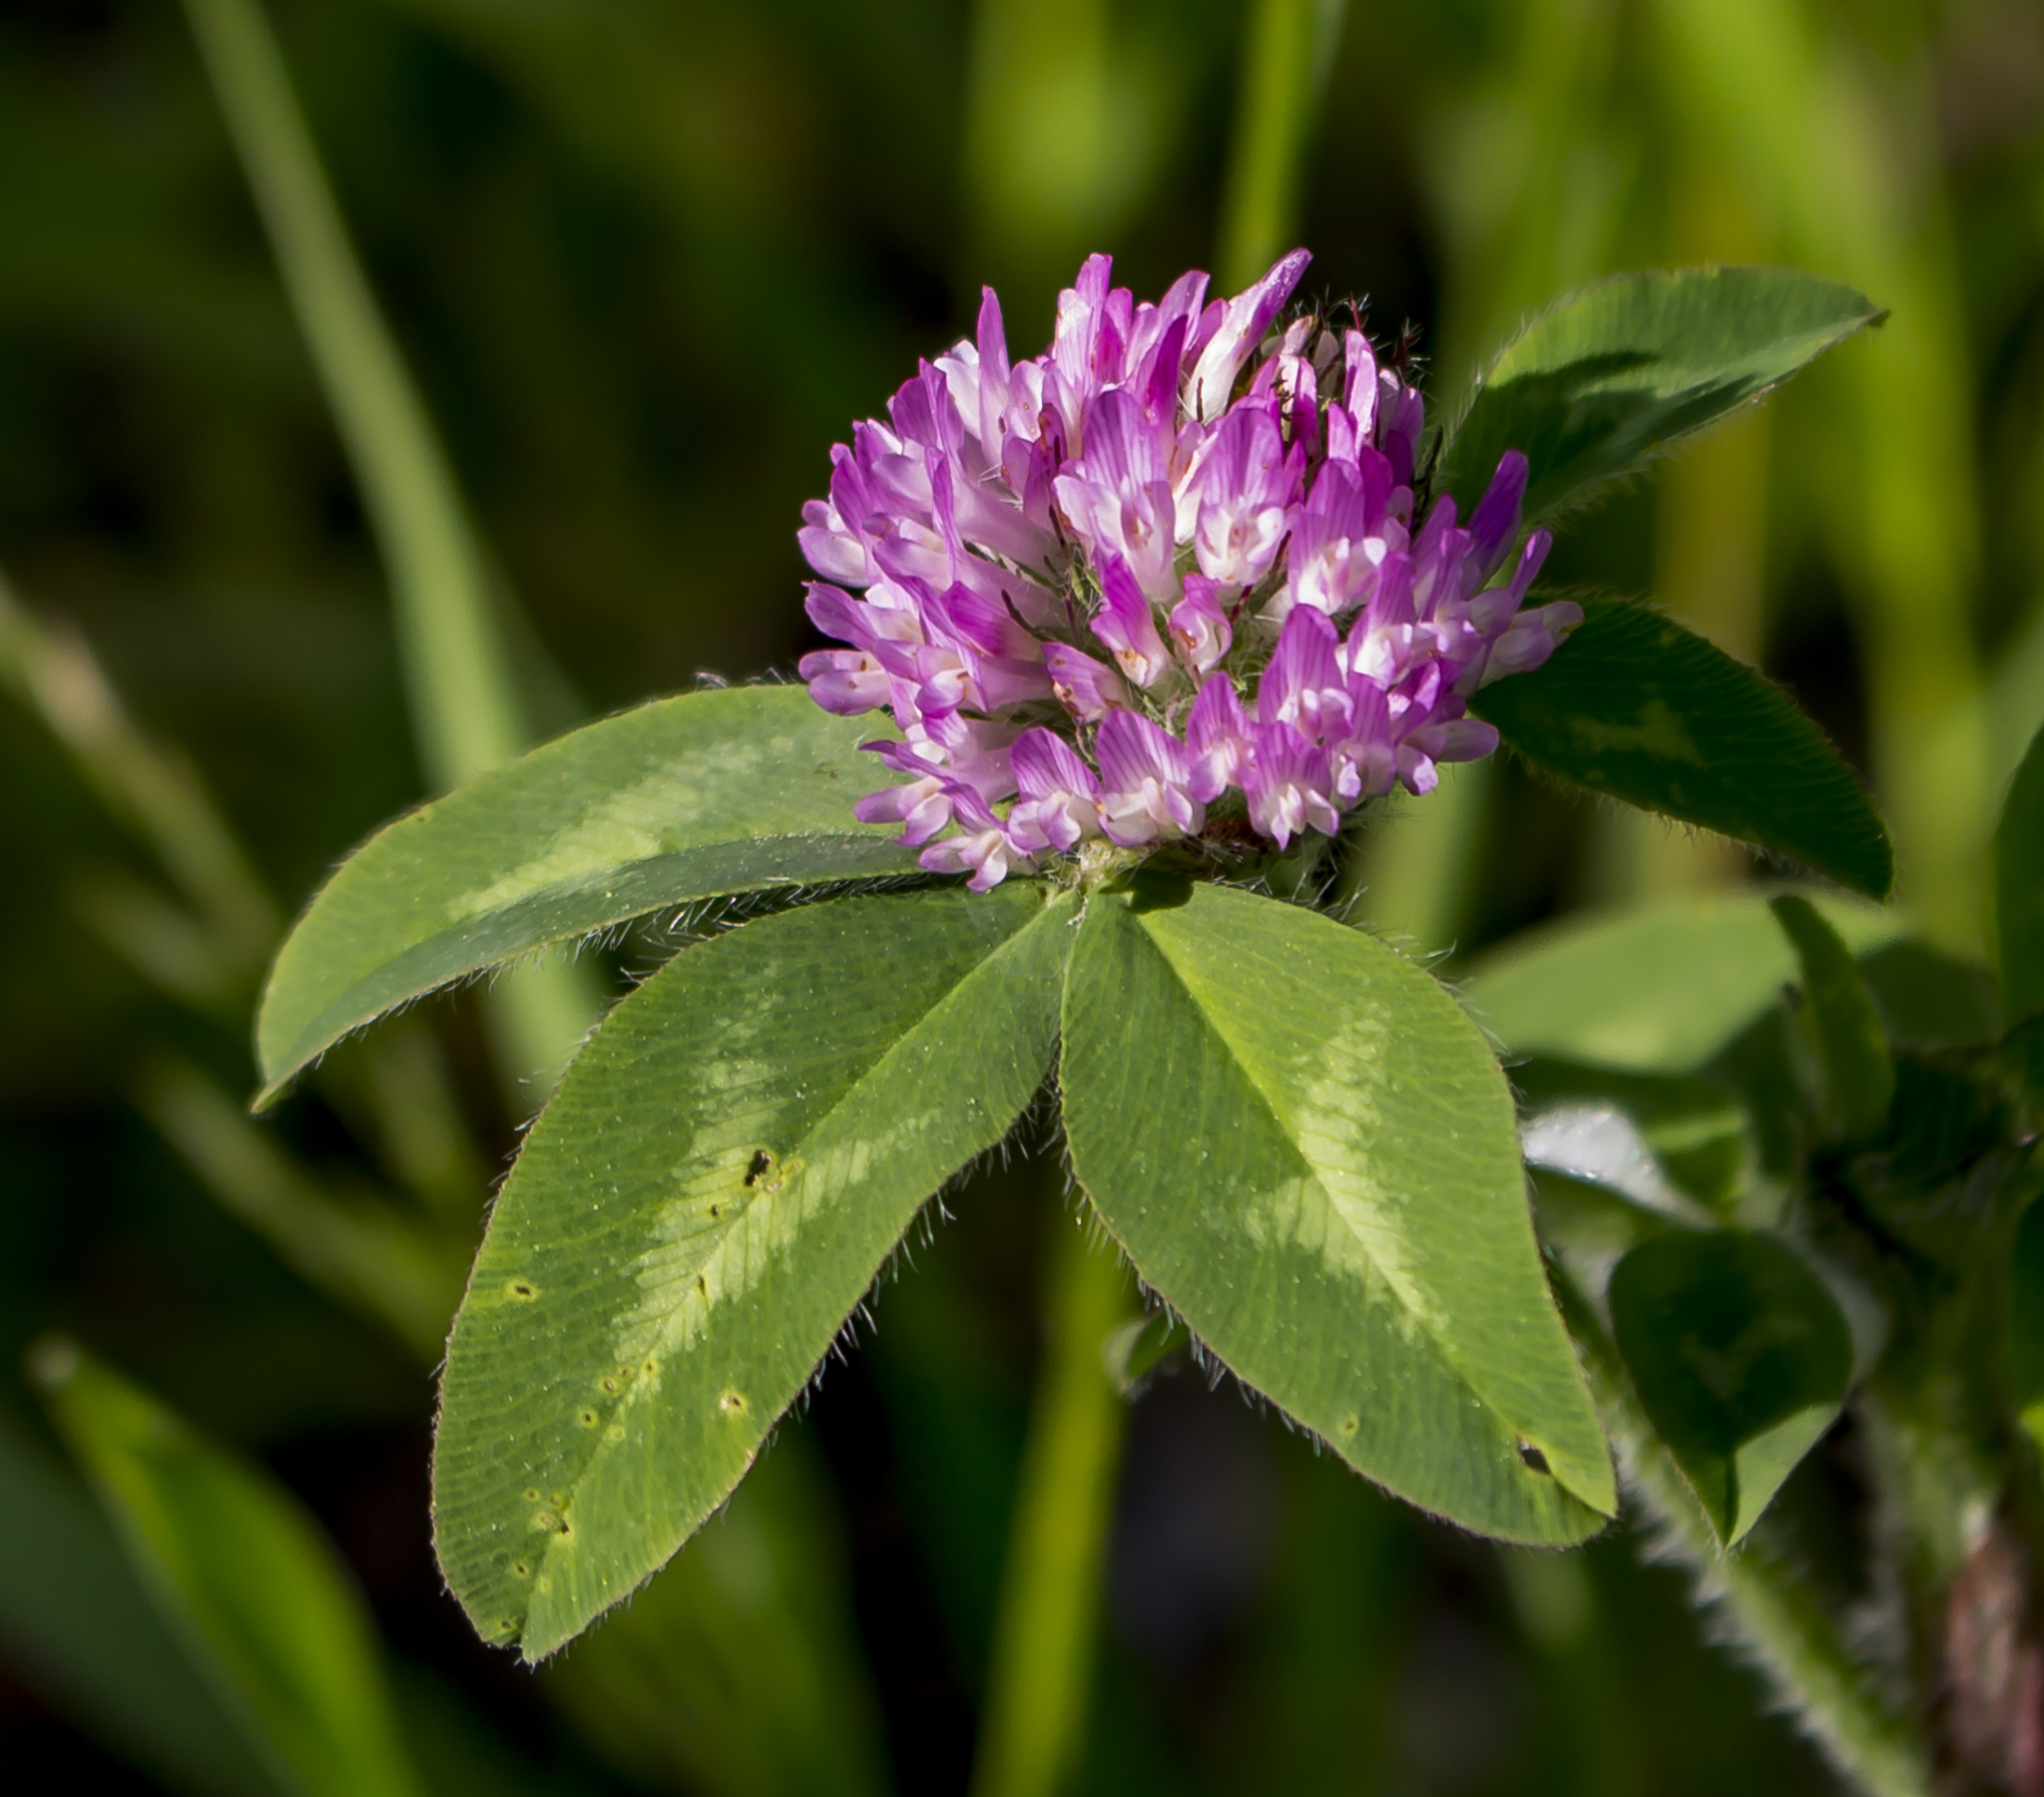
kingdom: Plantae
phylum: Tracheophyta
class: Magnoliopsida
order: Fabales
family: Fabaceae
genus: Trifolium
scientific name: Trifolium pratense
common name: Red clover
